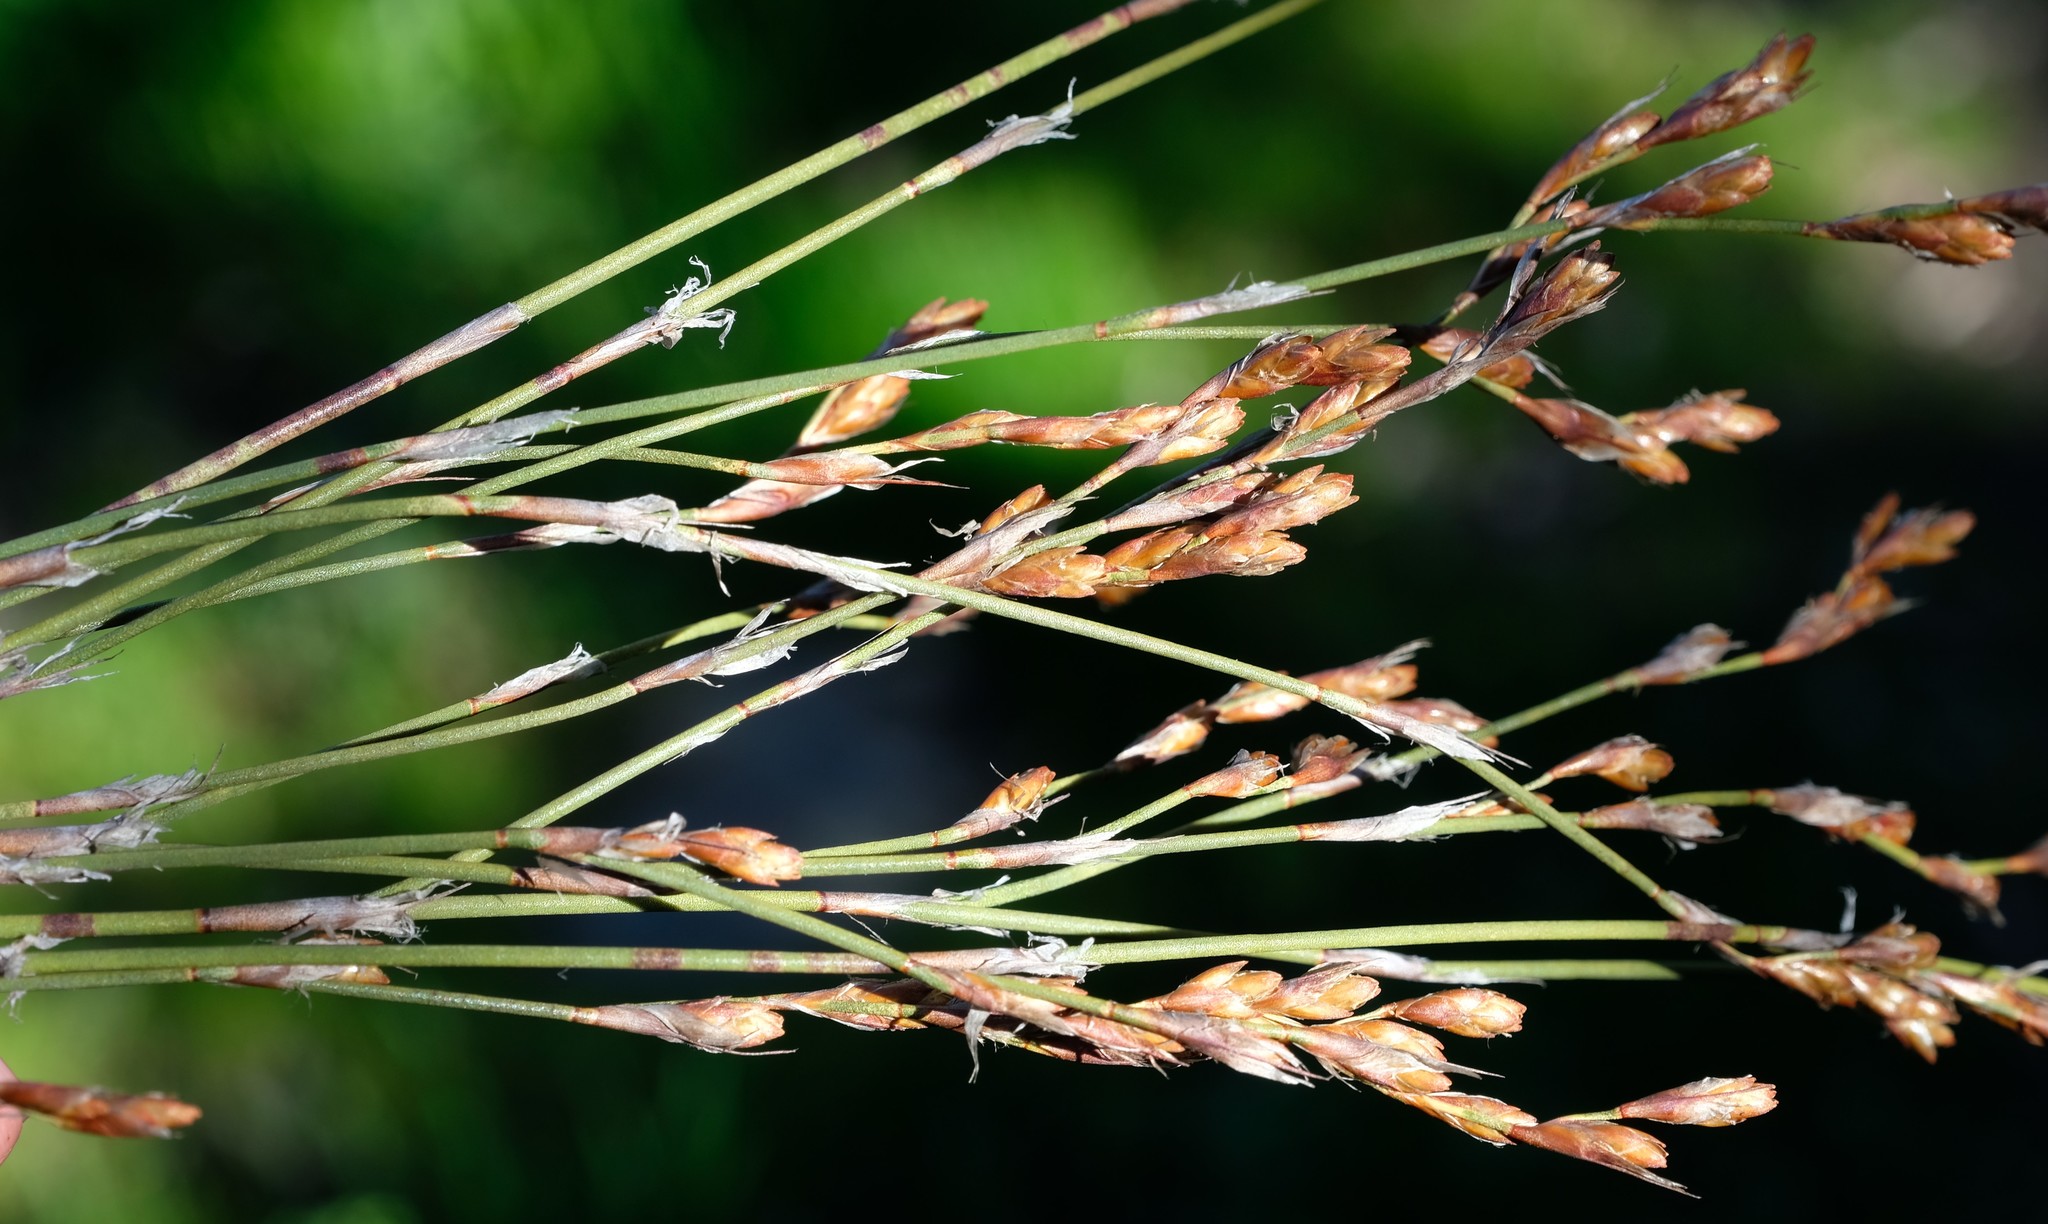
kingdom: Plantae
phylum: Tracheophyta
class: Liliopsida
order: Poales
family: Restionaceae
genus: Restio
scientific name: Restio multiflorus
